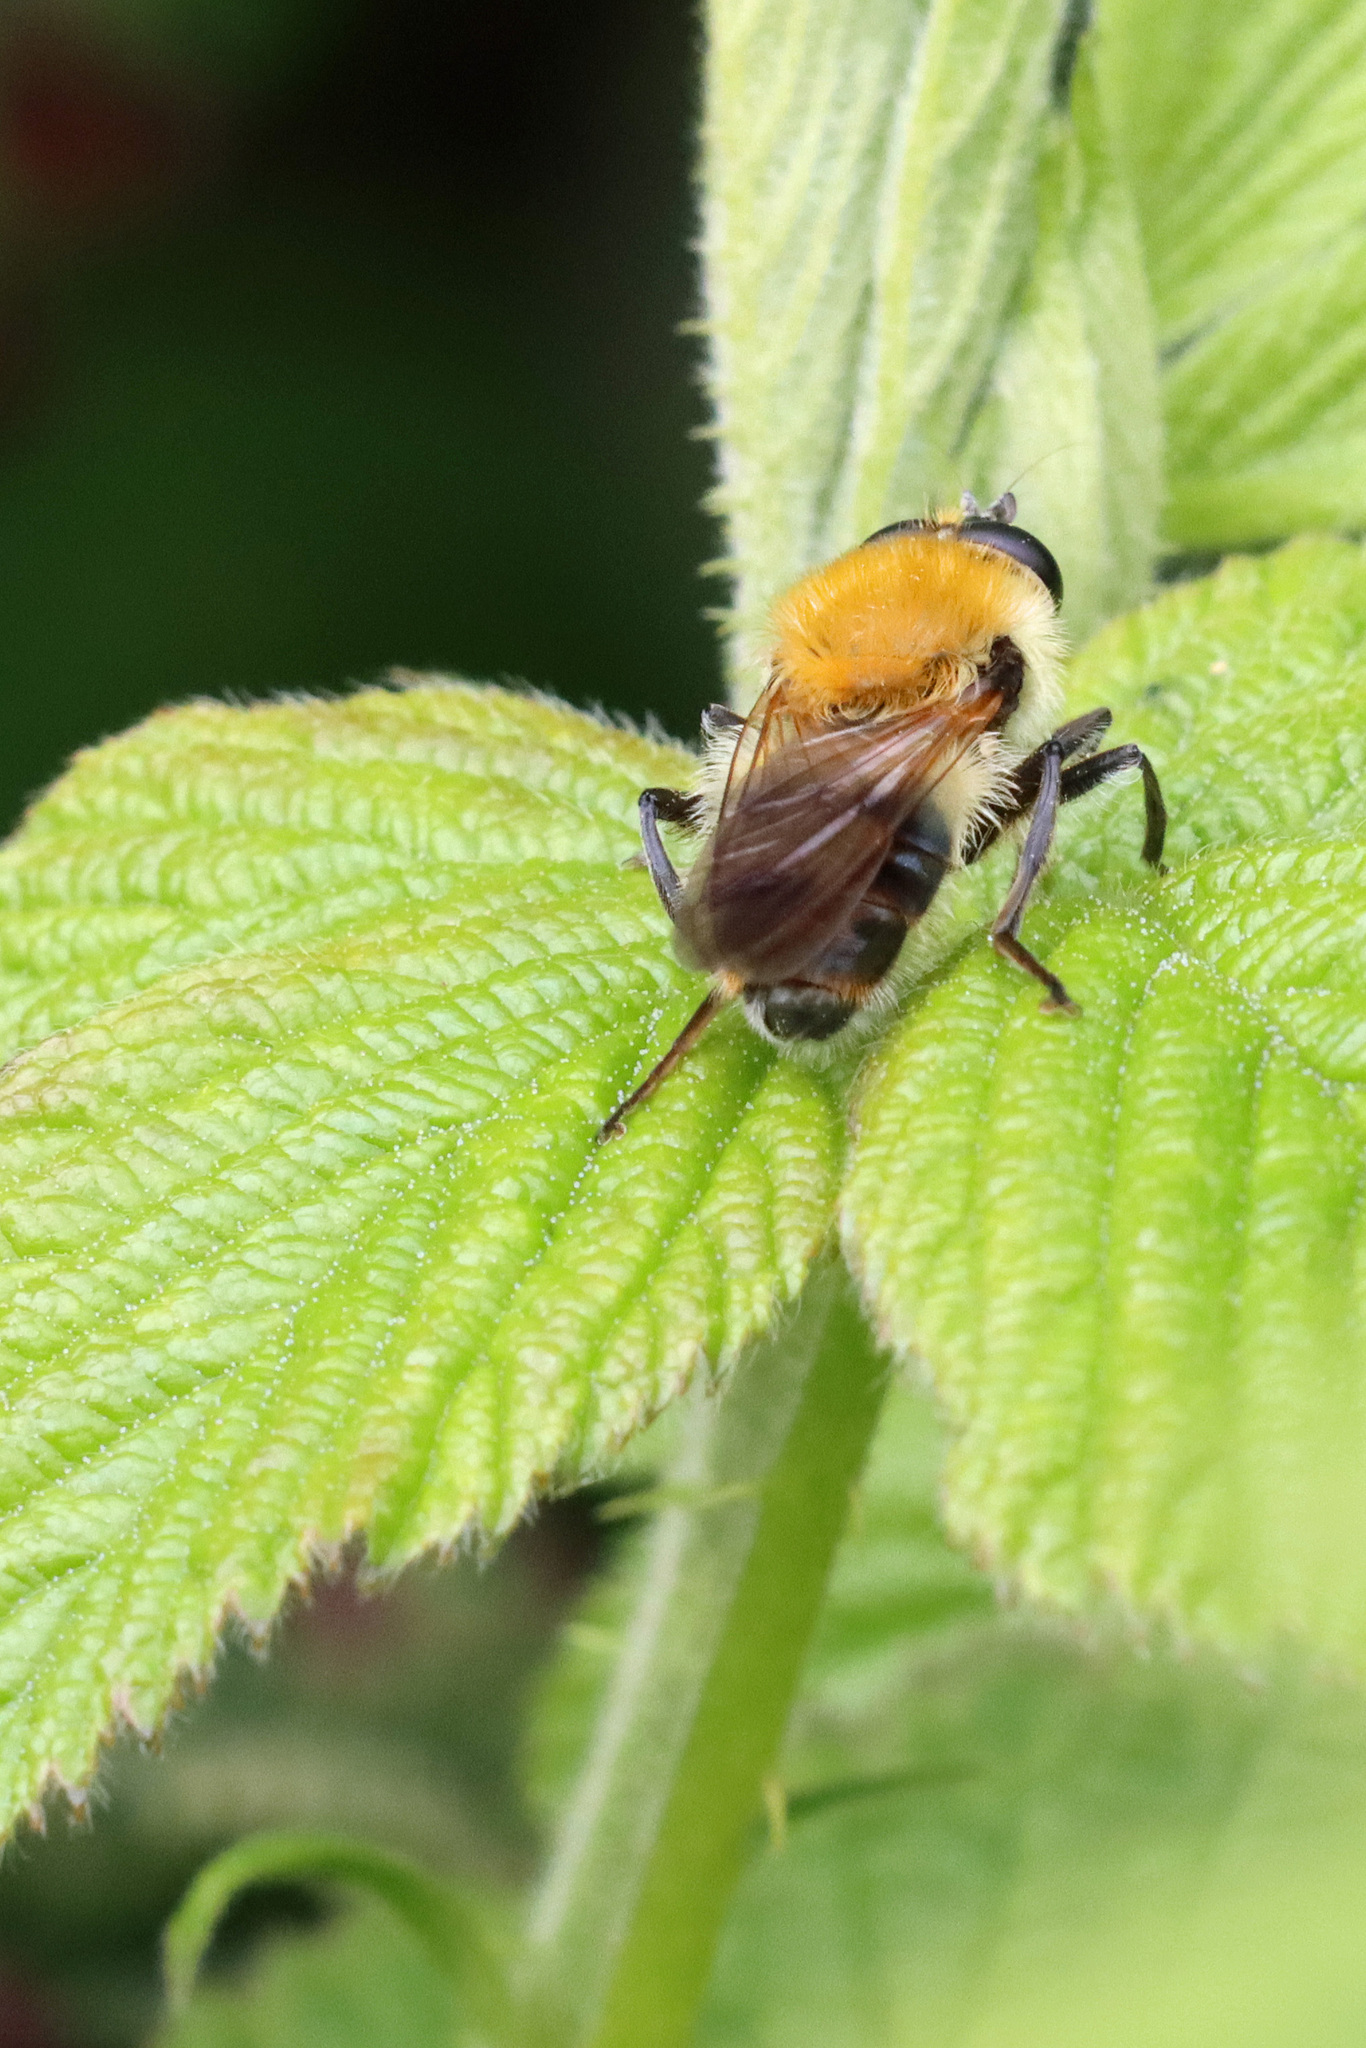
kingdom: Animalia
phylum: Arthropoda
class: Insecta
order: Diptera
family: Syrphidae
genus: Criorhina
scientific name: Criorhina floccosa
